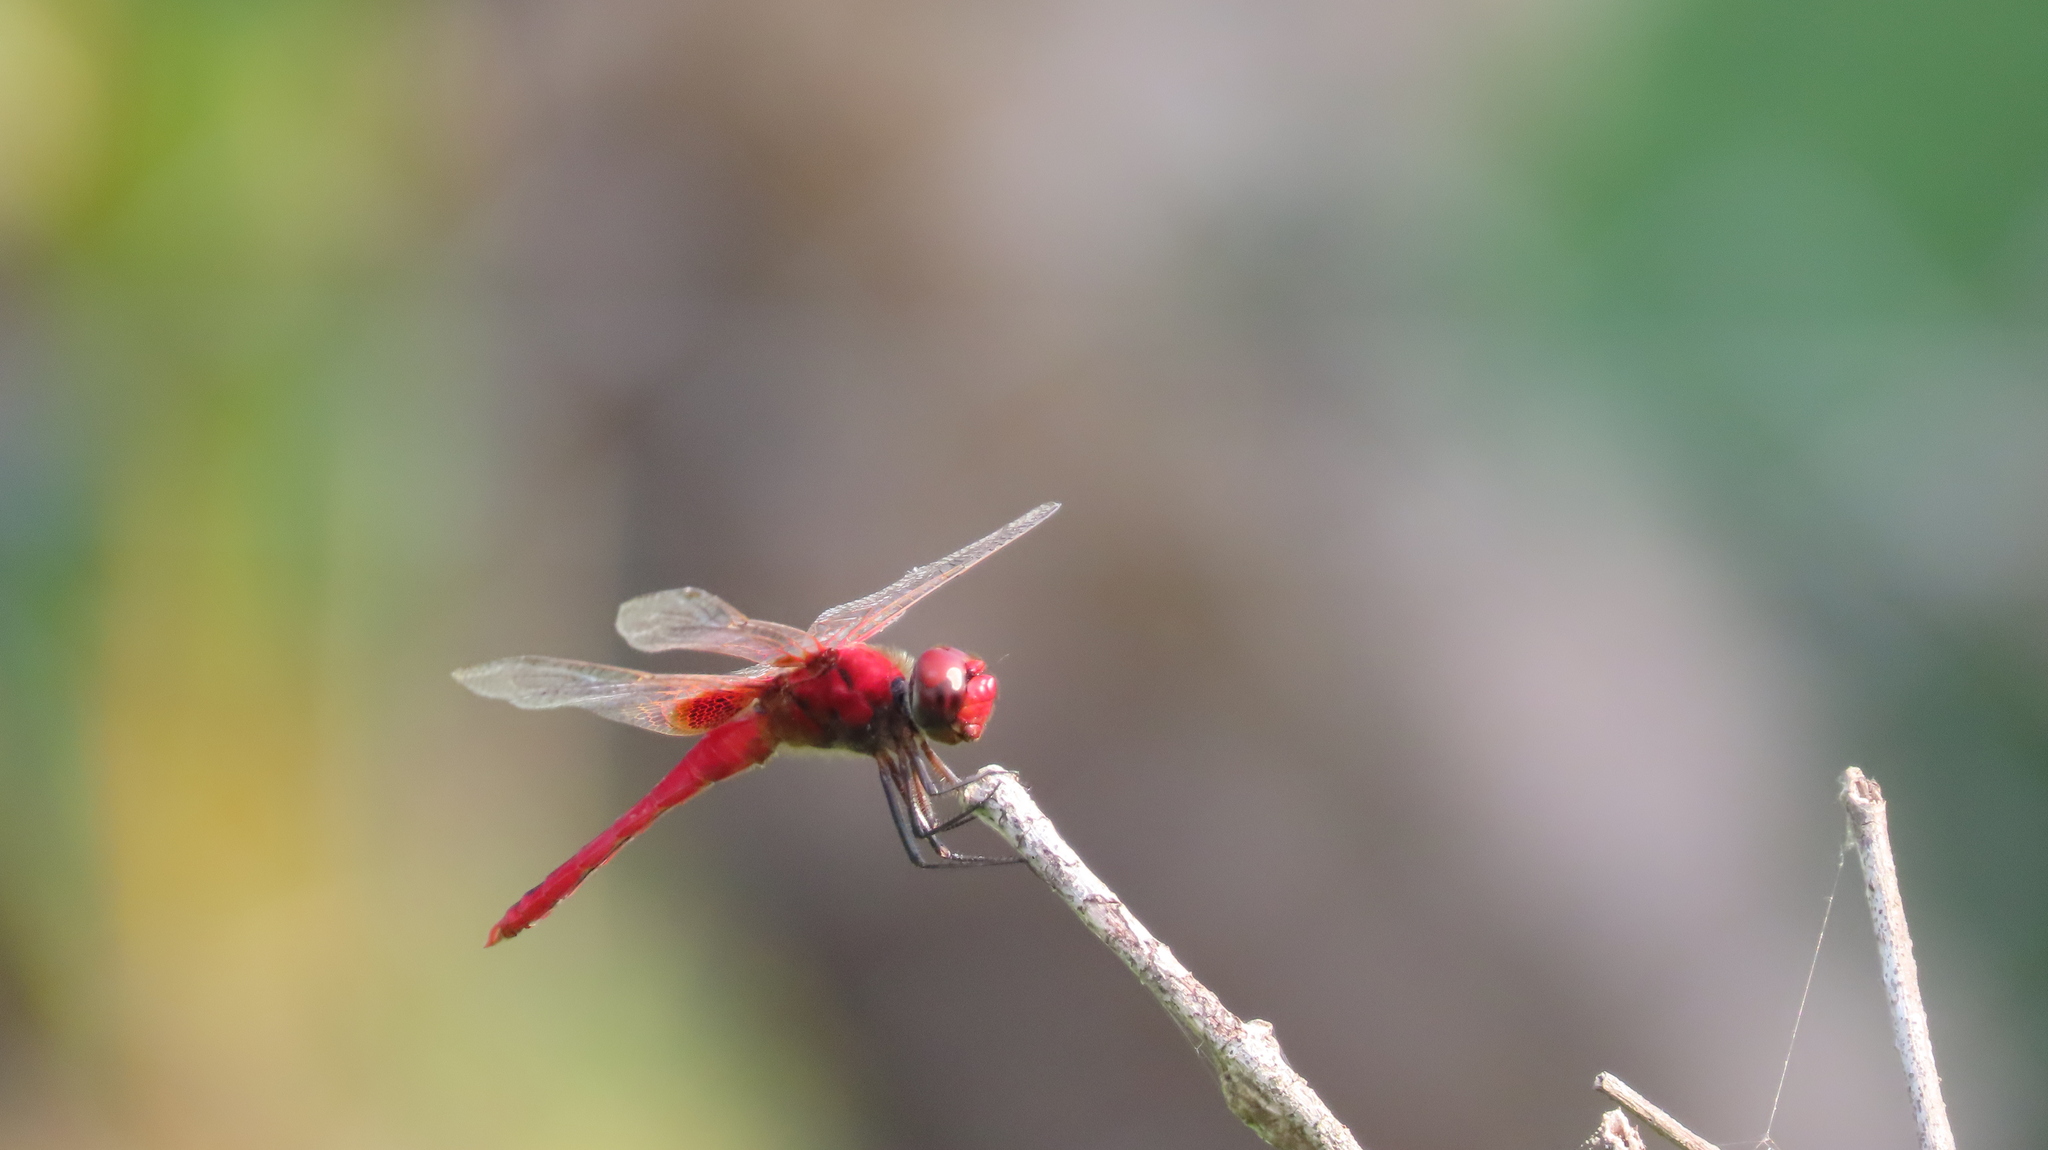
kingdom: Animalia
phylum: Arthropoda
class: Insecta
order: Odonata
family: Libellulidae
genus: Urothemis
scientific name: Urothemis signata
